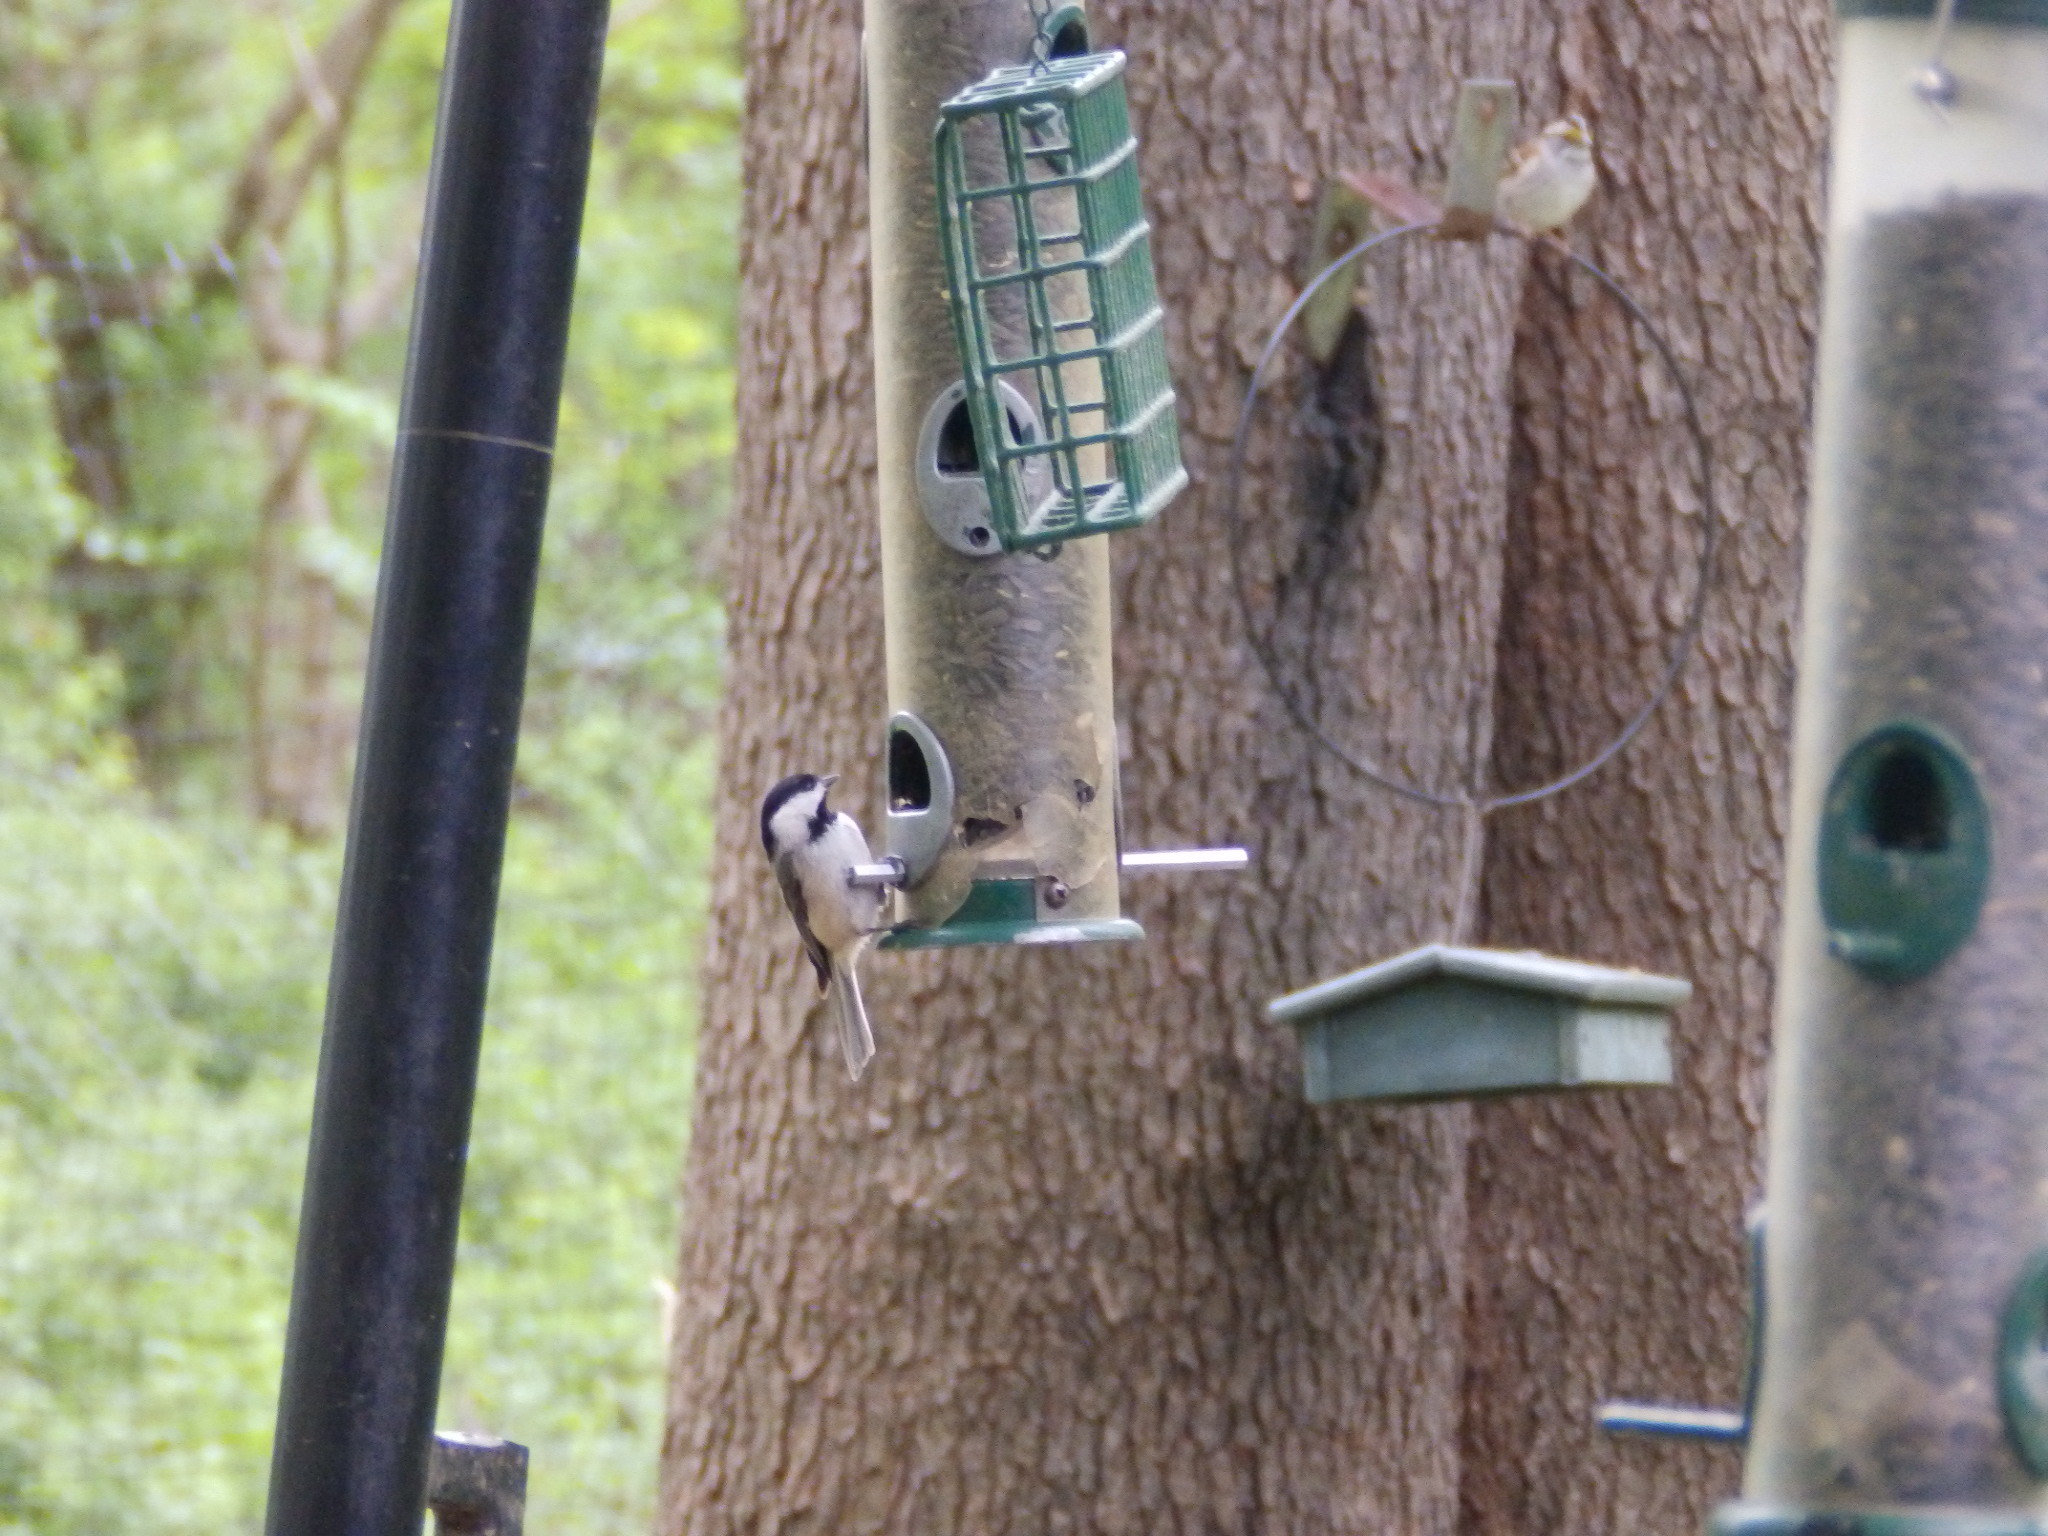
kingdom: Animalia
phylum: Chordata
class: Aves
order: Passeriformes
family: Paridae
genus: Poecile
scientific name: Poecile carolinensis
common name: Carolina chickadee
